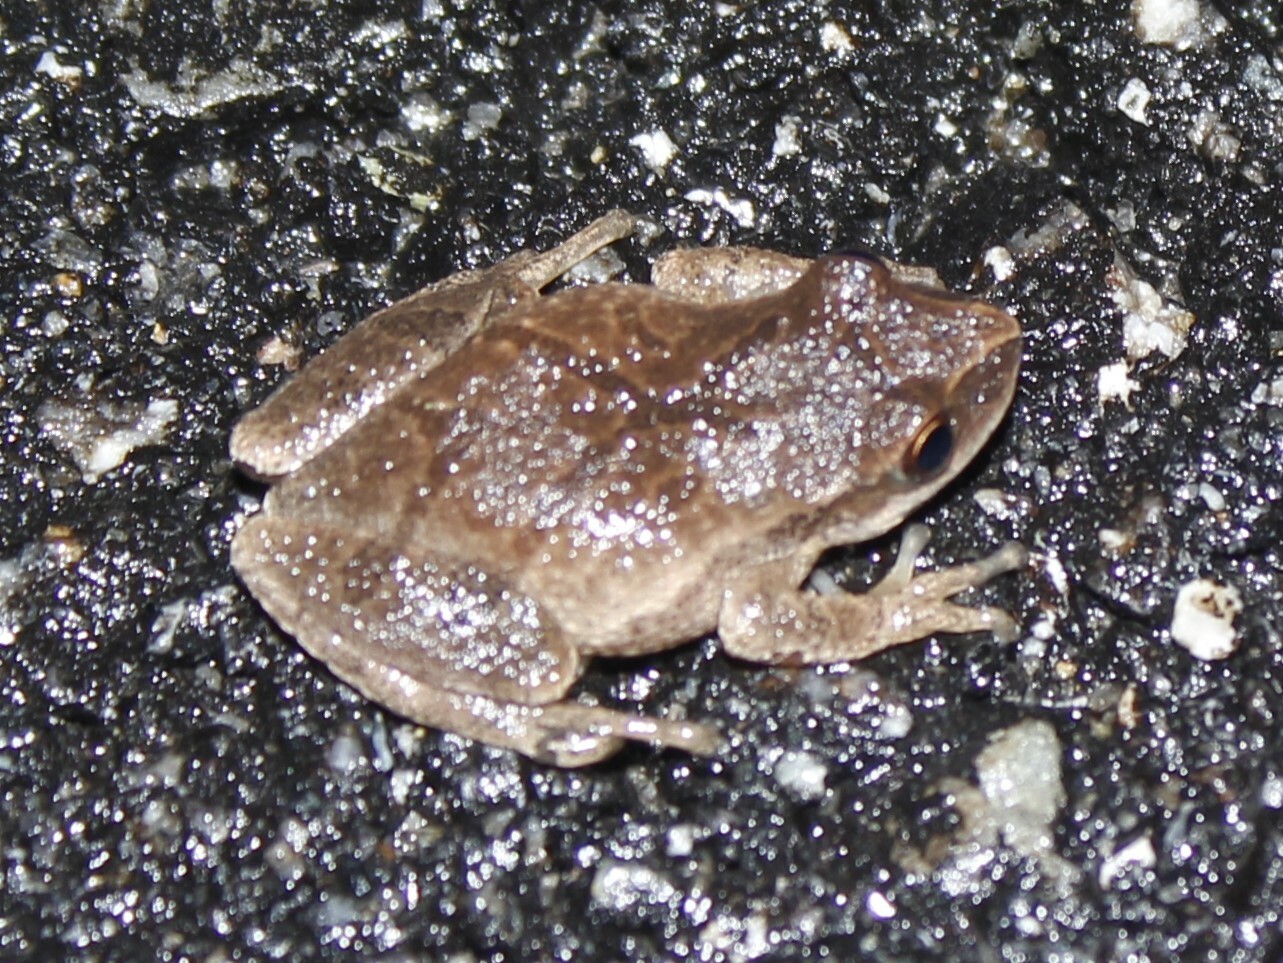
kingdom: Animalia
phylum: Chordata
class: Amphibia
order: Anura
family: Hylidae
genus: Pseudacris
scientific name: Pseudacris crucifer
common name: Spring peeper
